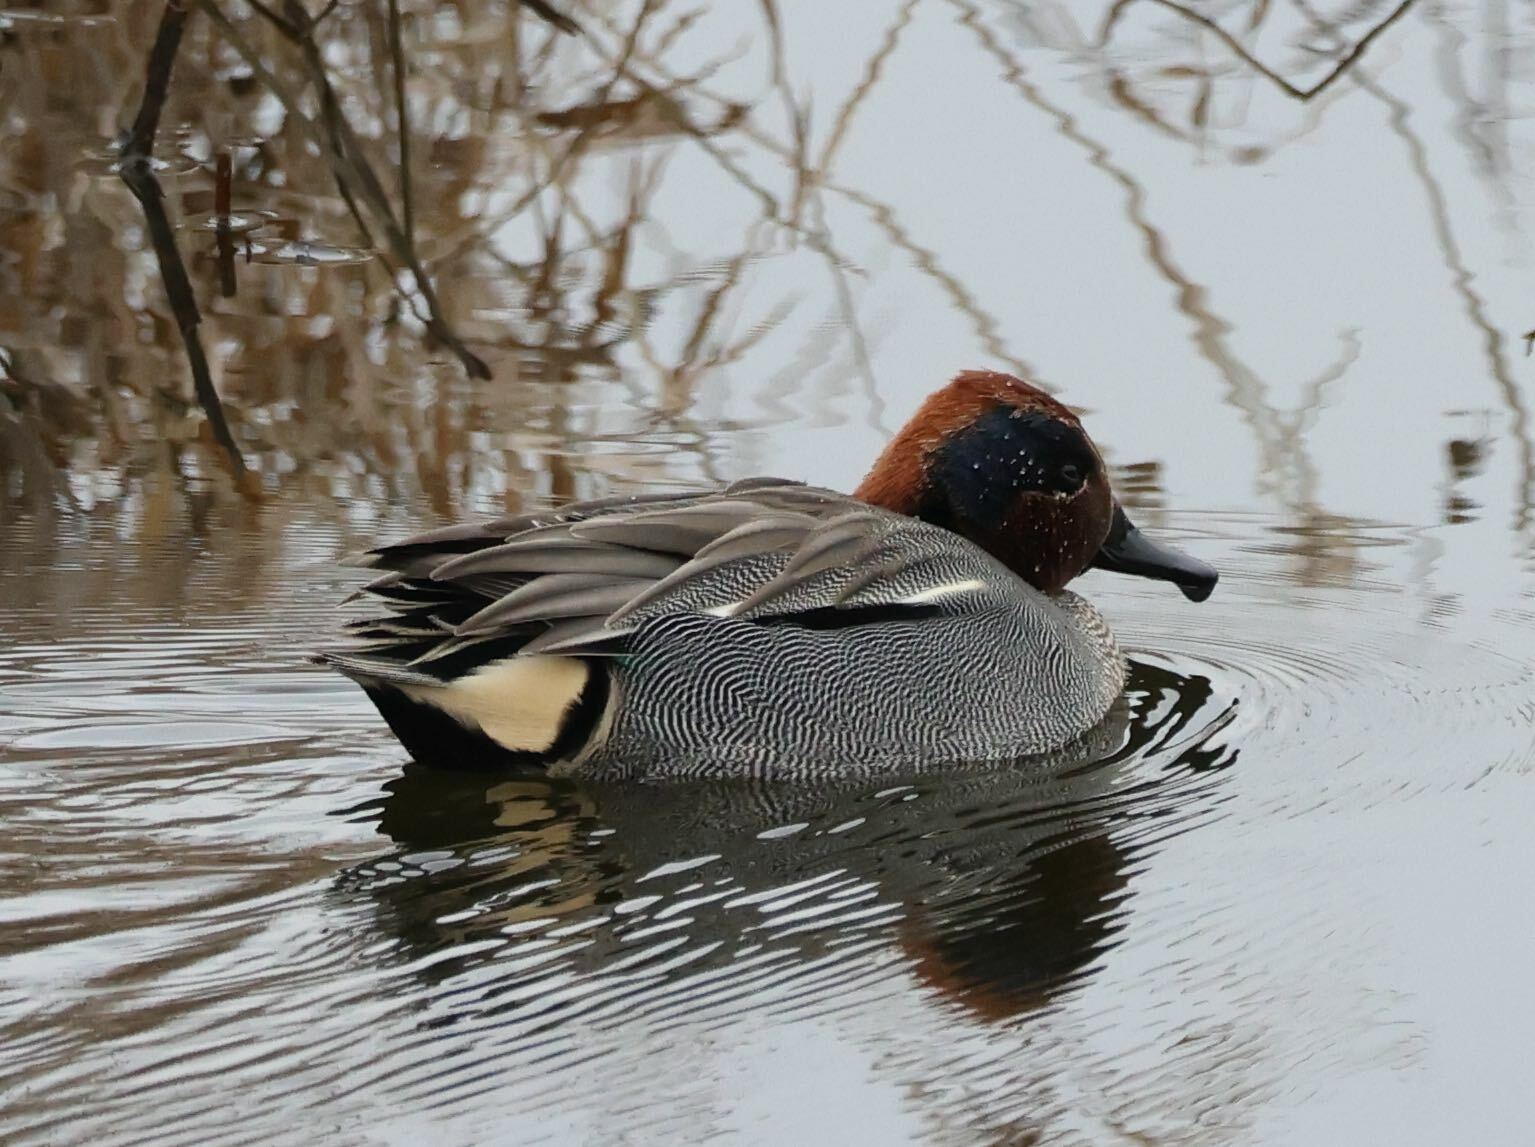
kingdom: Animalia
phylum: Chordata
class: Aves
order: Anseriformes
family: Anatidae
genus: Anas
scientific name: Anas crecca
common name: Eurasian teal
